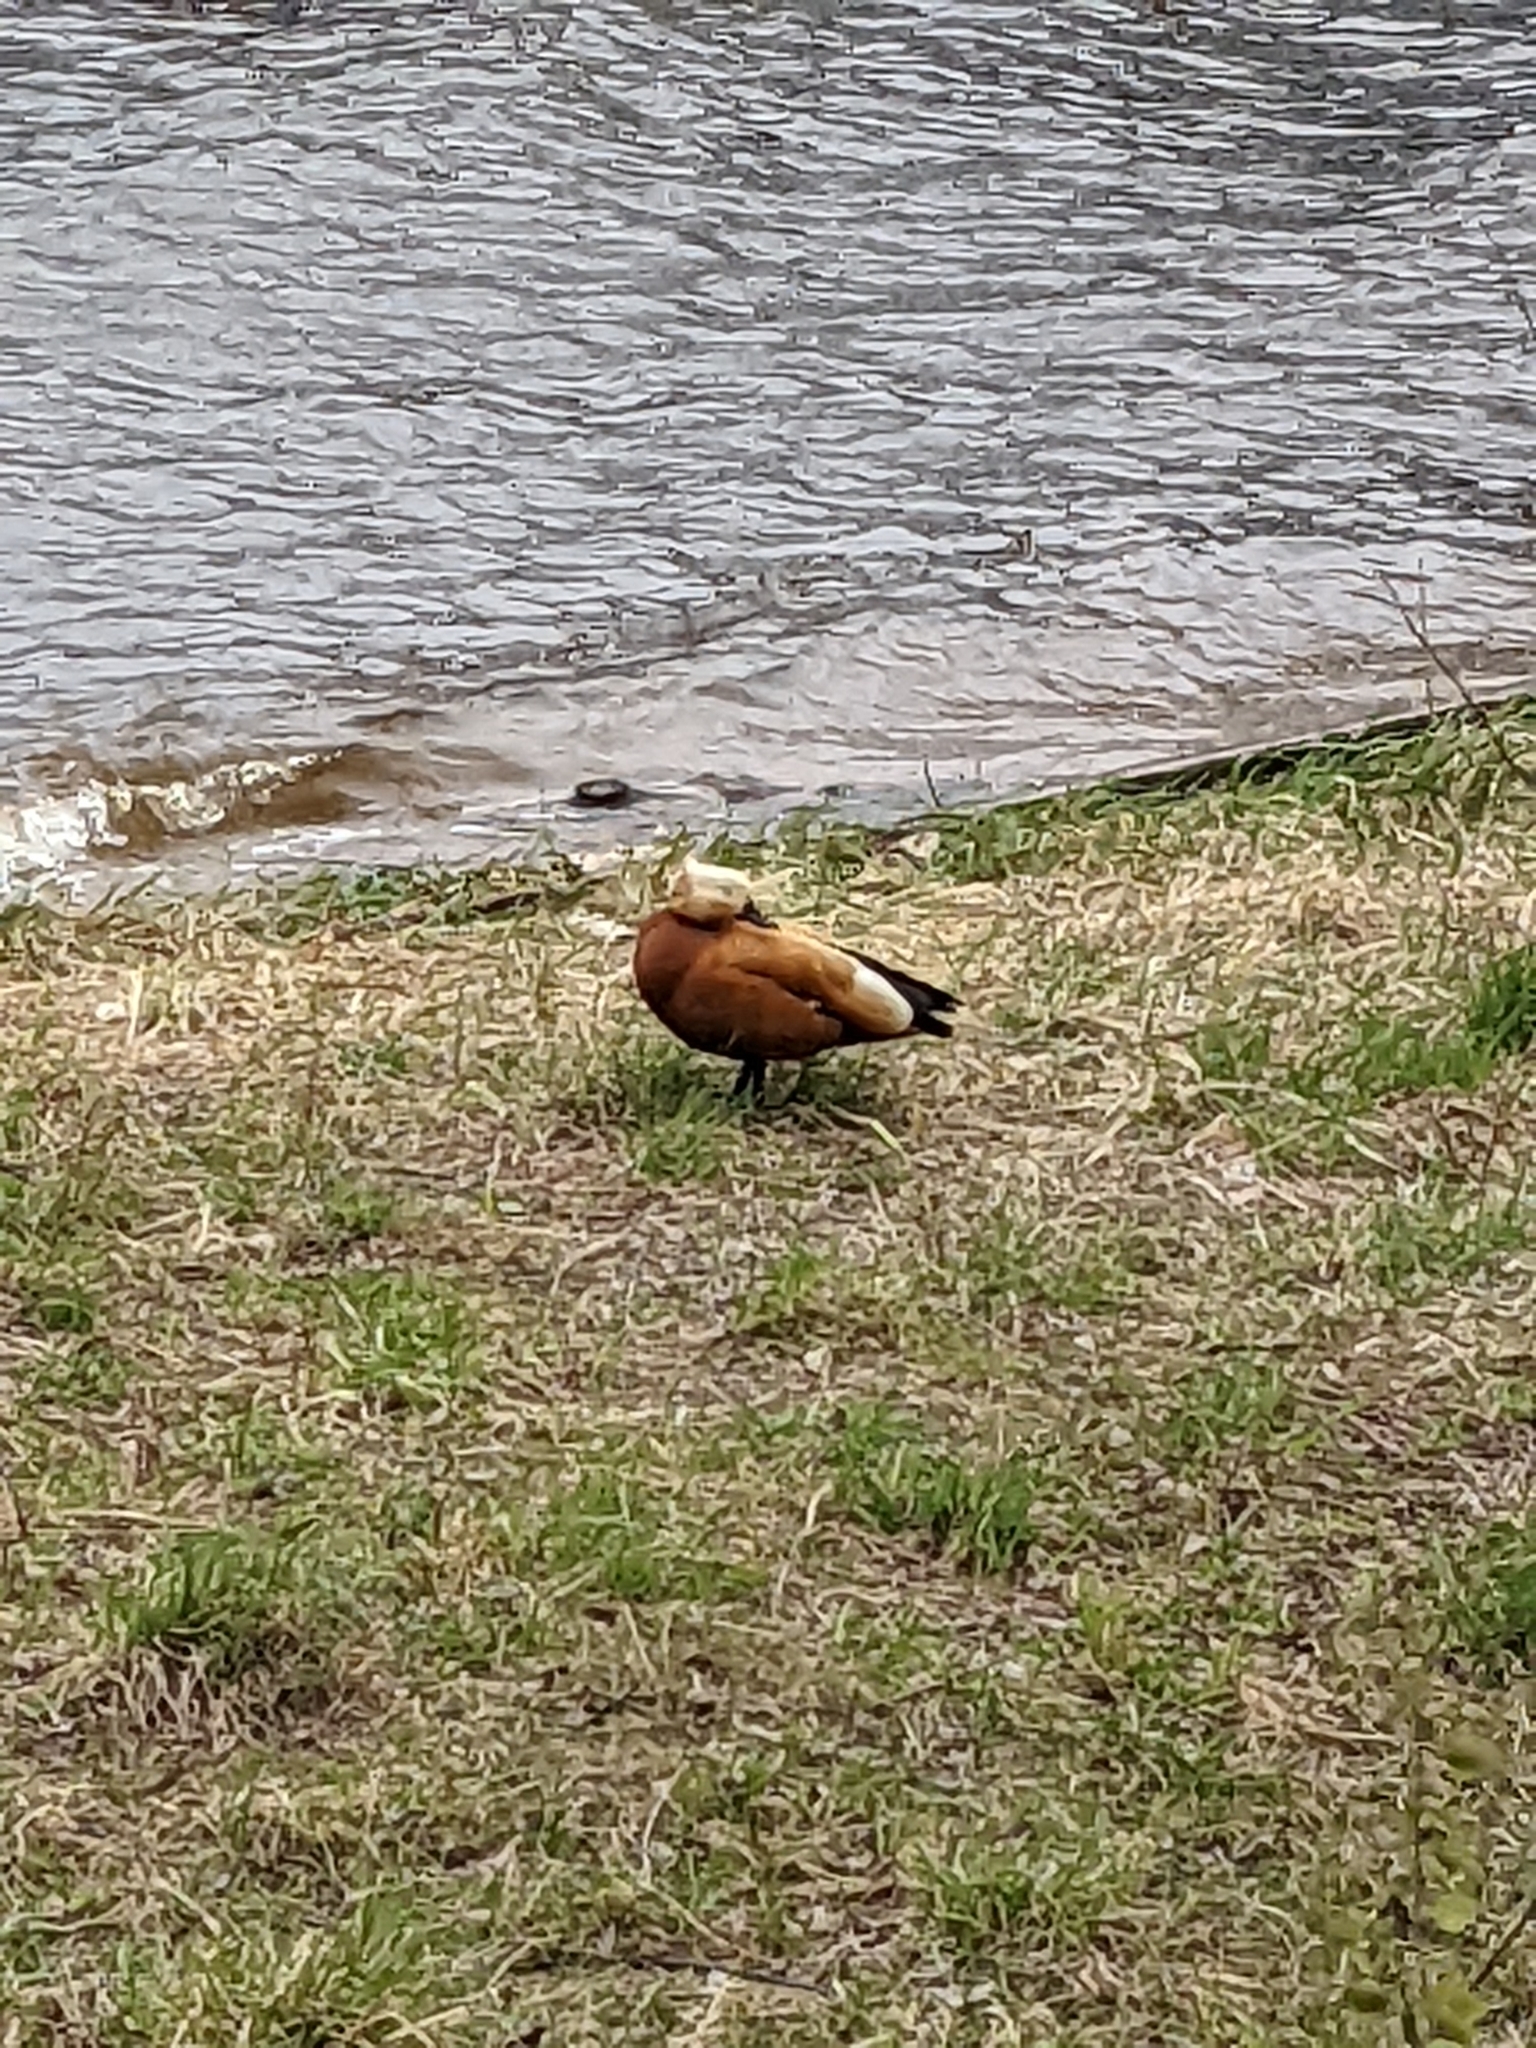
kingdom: Animalia
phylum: Chordata
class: Aves
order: Anseriformes
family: Anatidae
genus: Tadorna
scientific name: Tadorna ferruginea
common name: Ruddy shelduck
